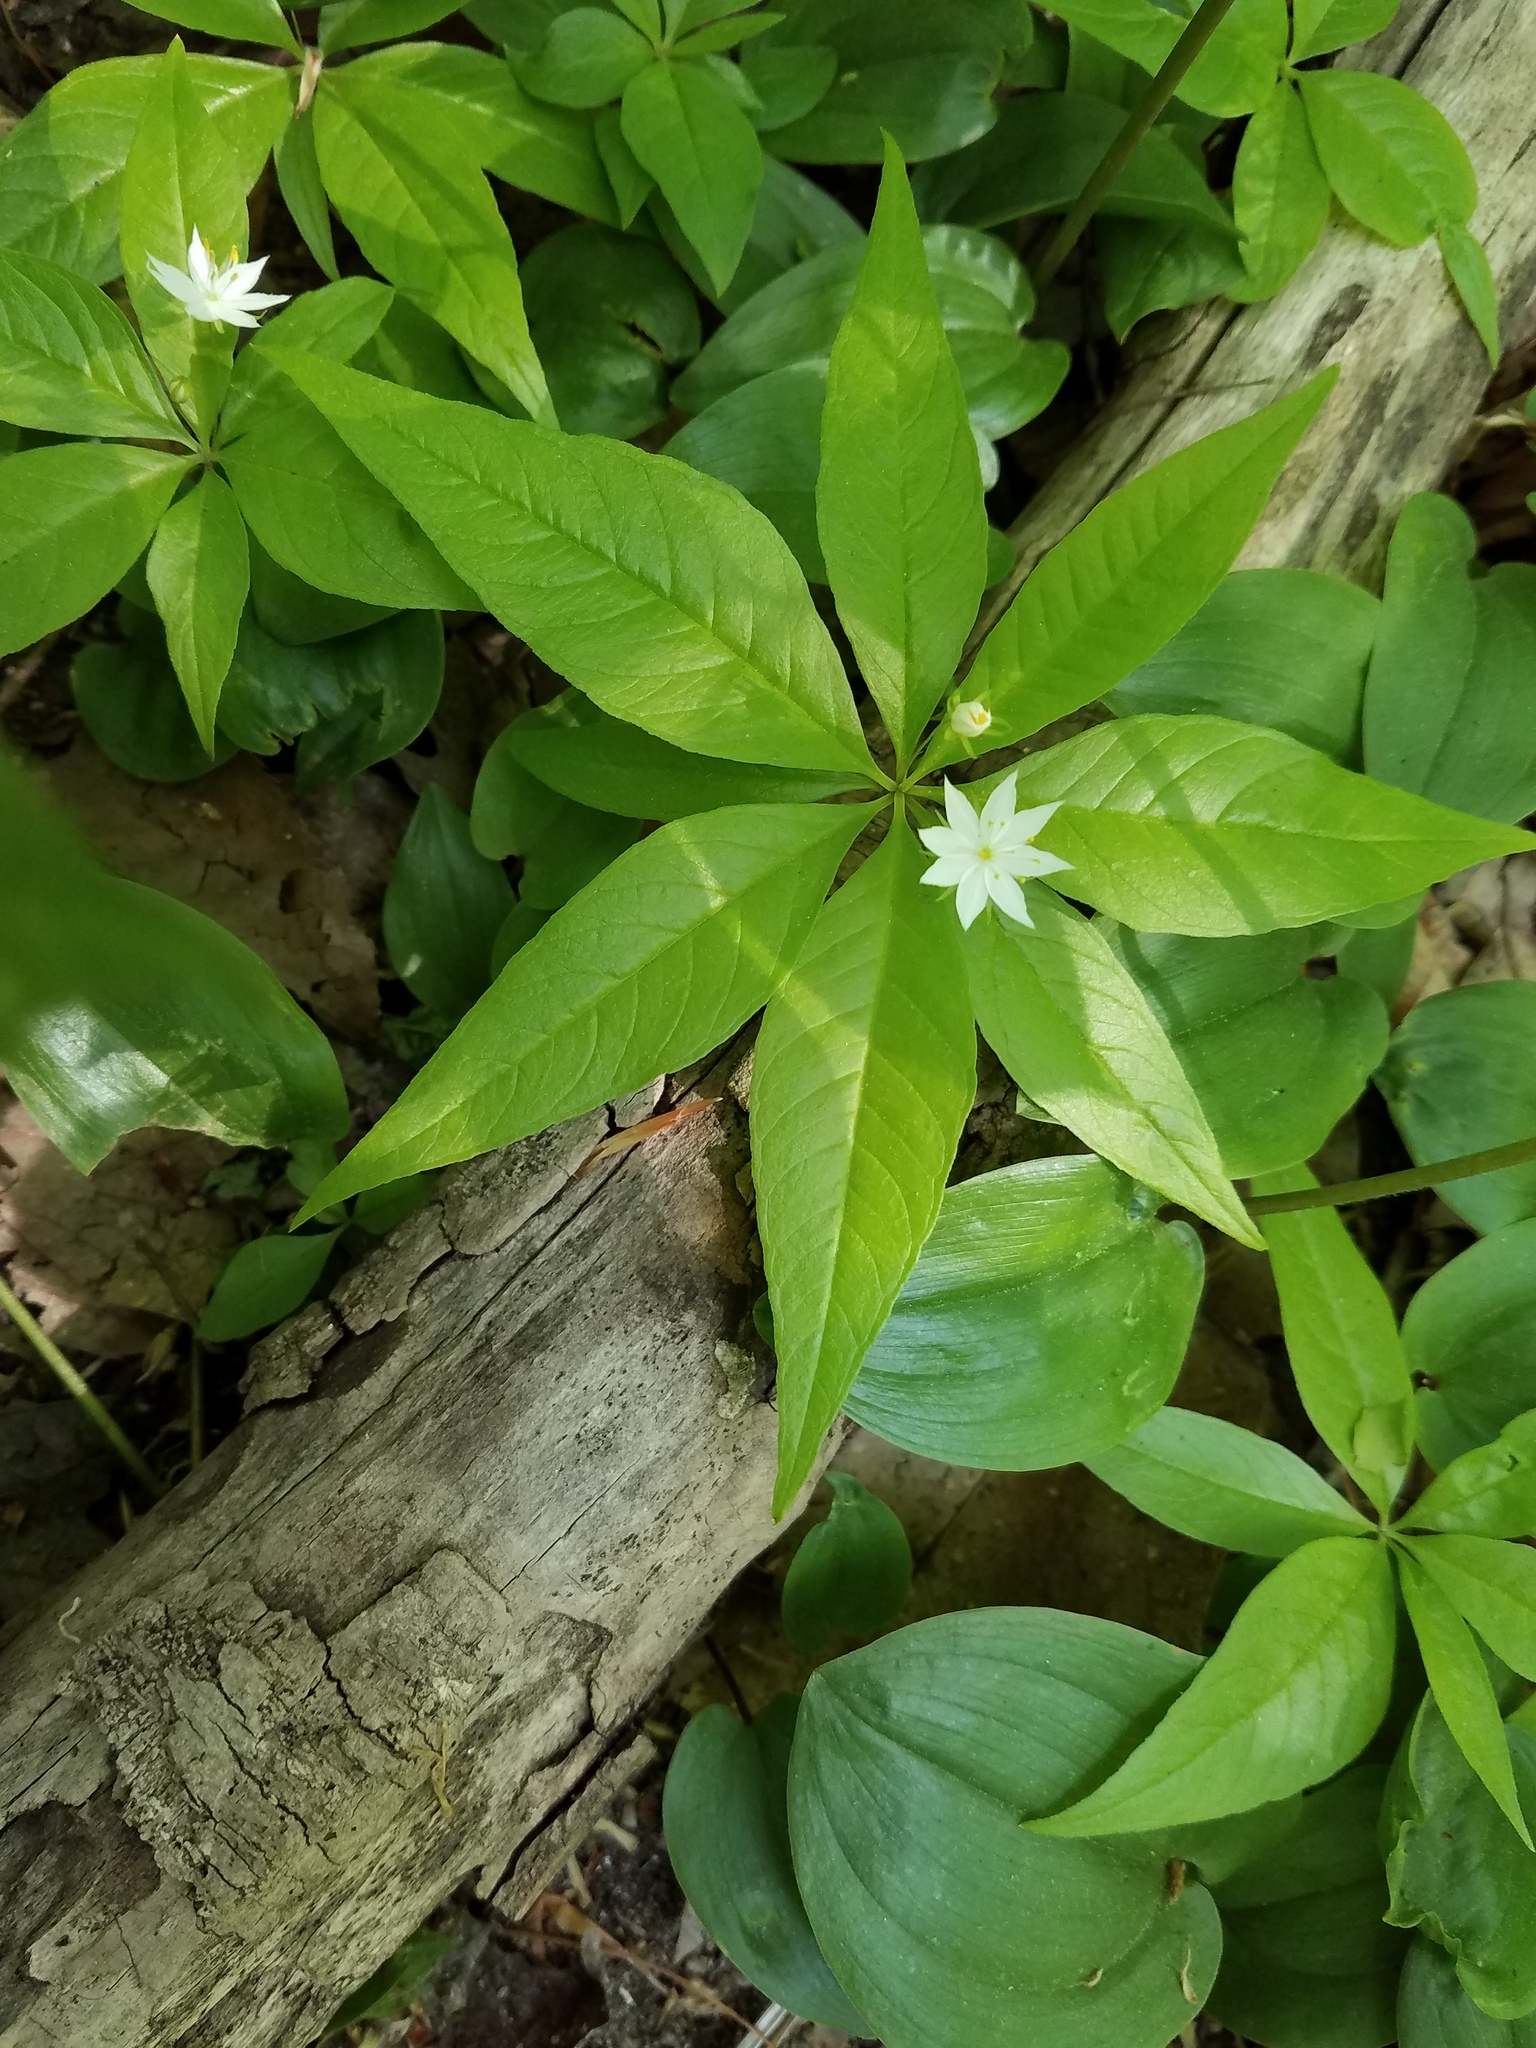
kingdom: Plantae
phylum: Tracheophyta
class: Magnoliopsida
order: Ericales
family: Primulaceae
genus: Lysimachia
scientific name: Lysimachia borealis
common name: American starflower
